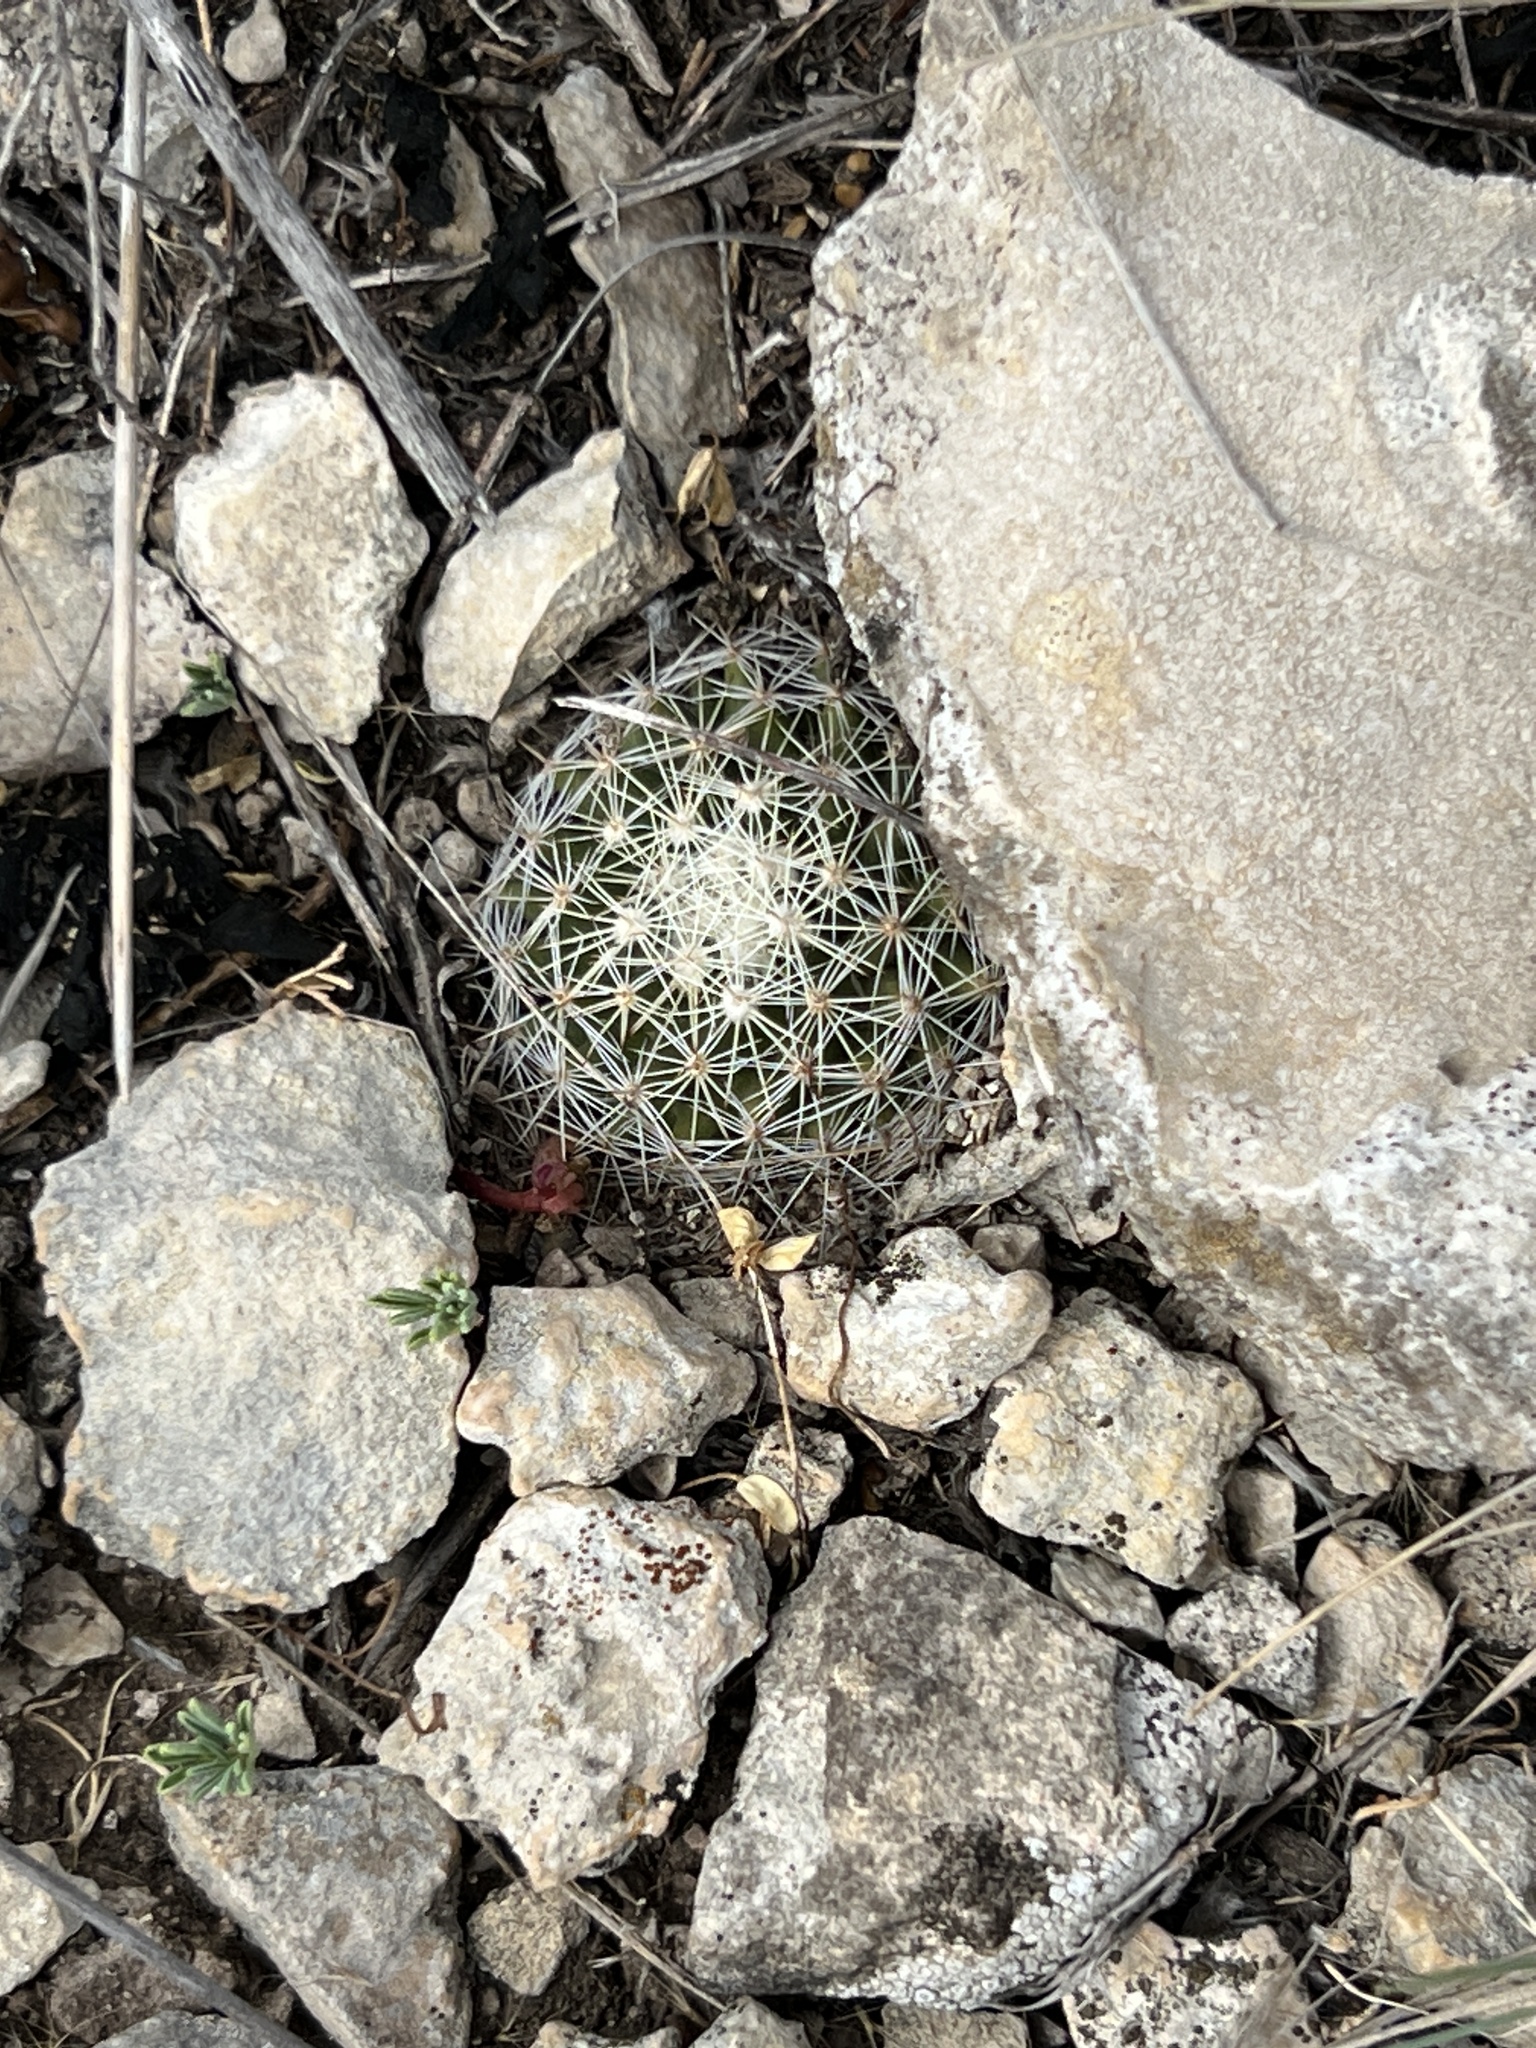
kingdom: Plantae
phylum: Tracheophyta
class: Magnoliopsida
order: Caryophyllales
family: Cactaceae
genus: Mammillaria
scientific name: Mammillaria heyderi
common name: Little nipple cactus
